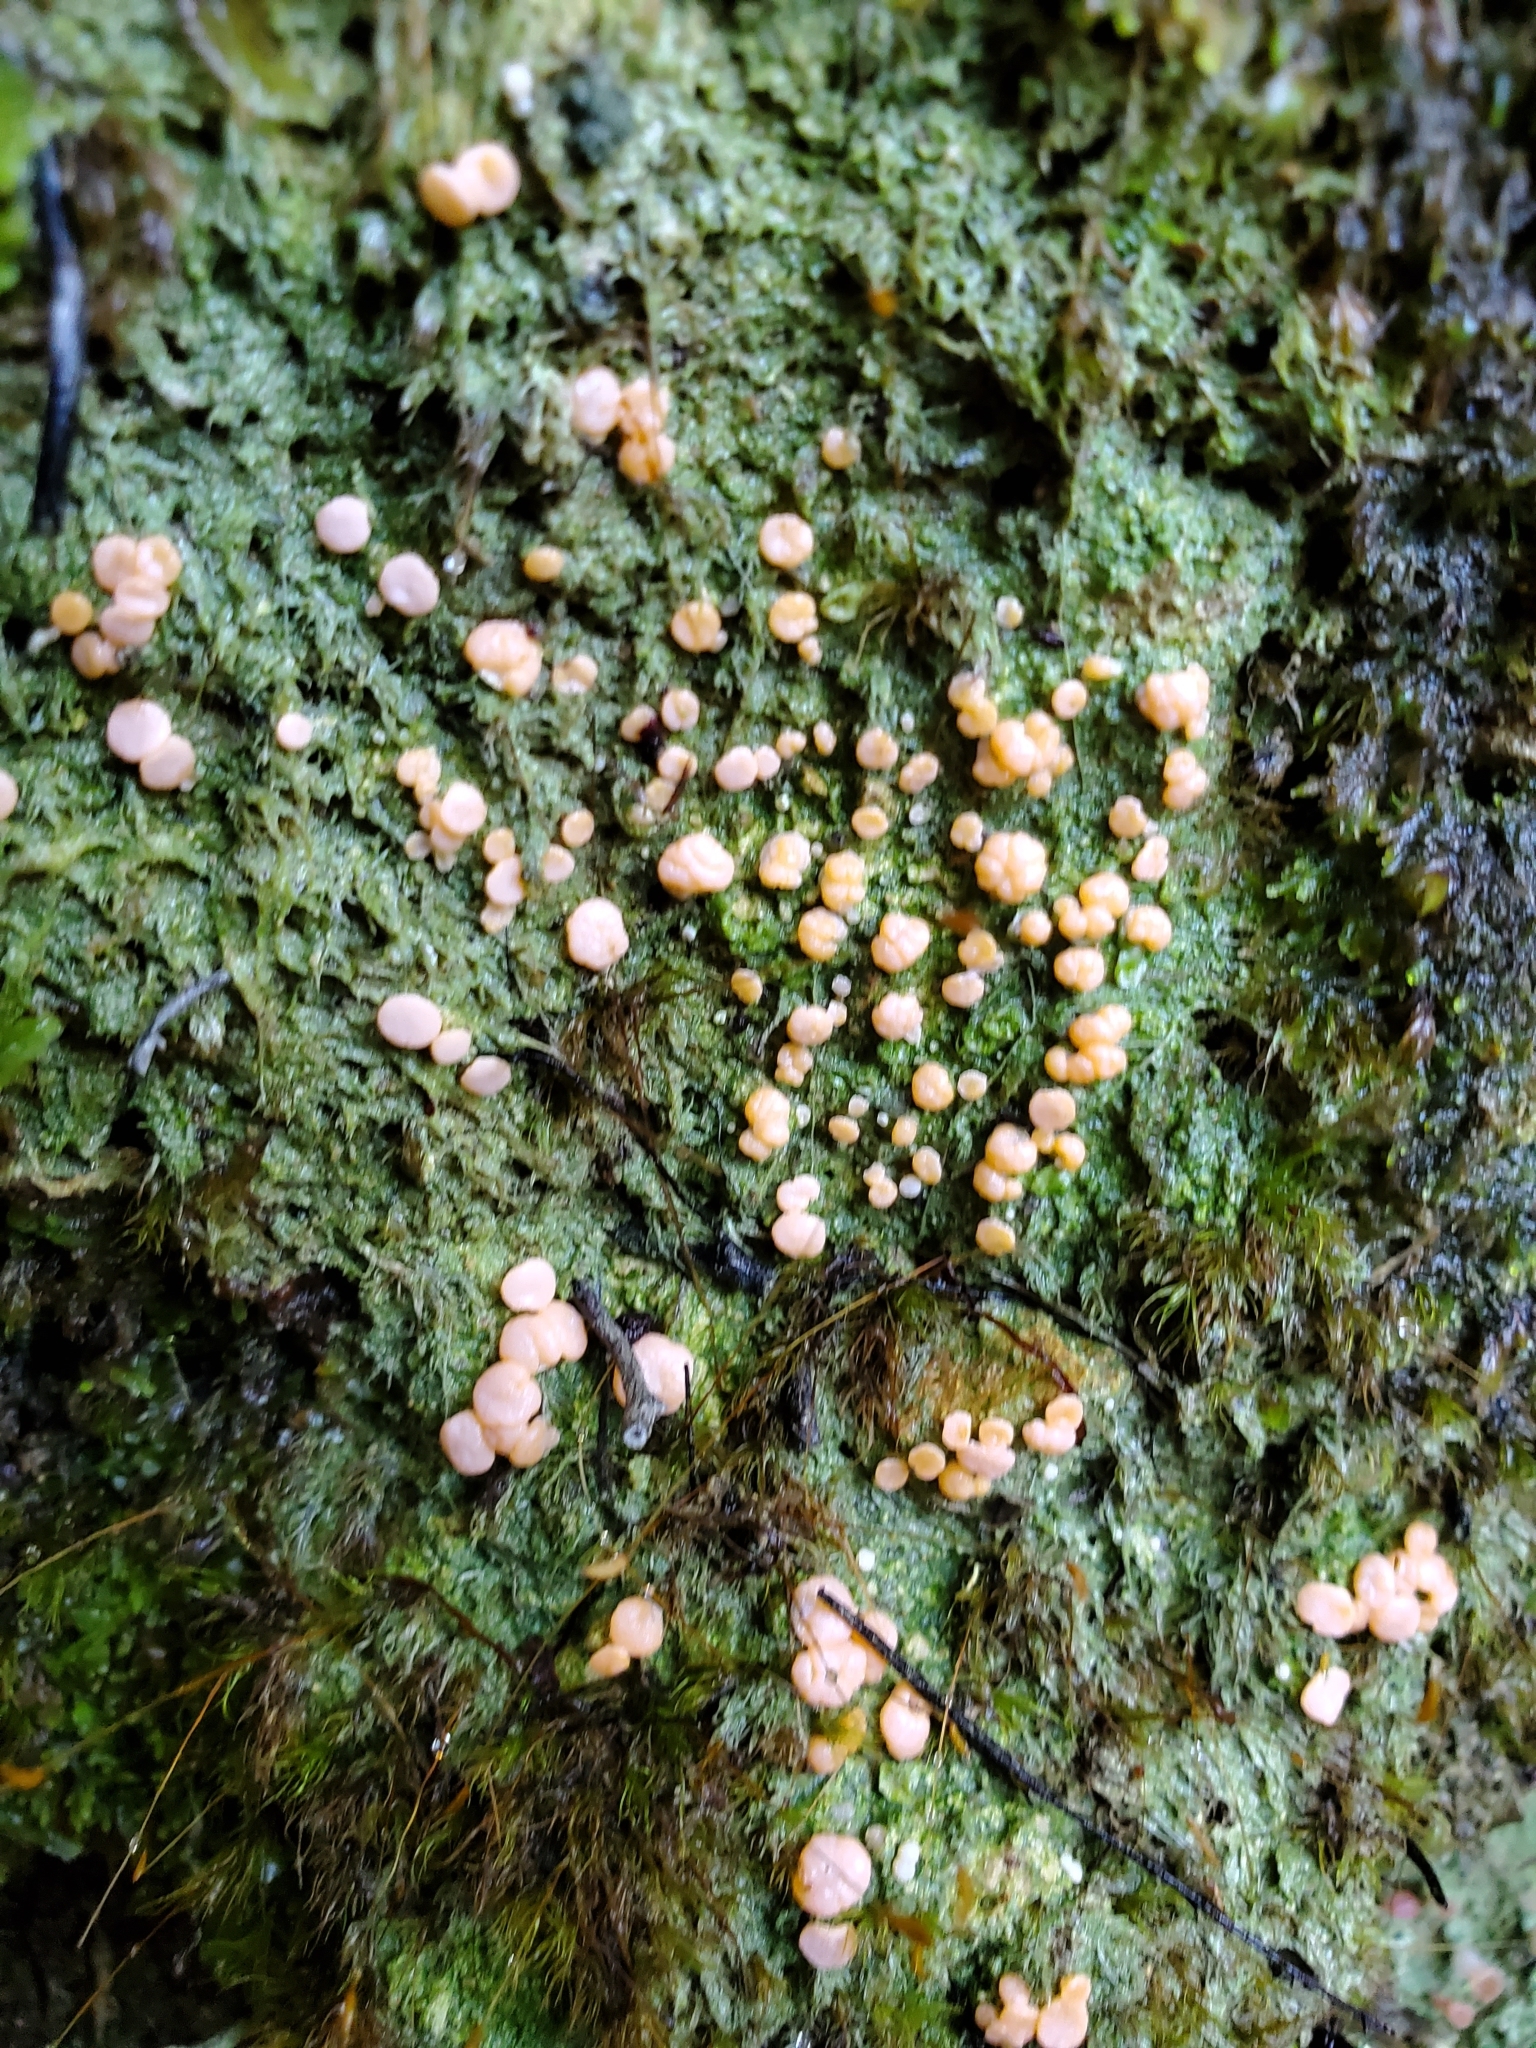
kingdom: Fungi
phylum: Ascomycota
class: Lecanoromycetes
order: Pertusariales
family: Icmadophilaceae
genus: Dibaeis
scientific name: Dibaeis absoluta
